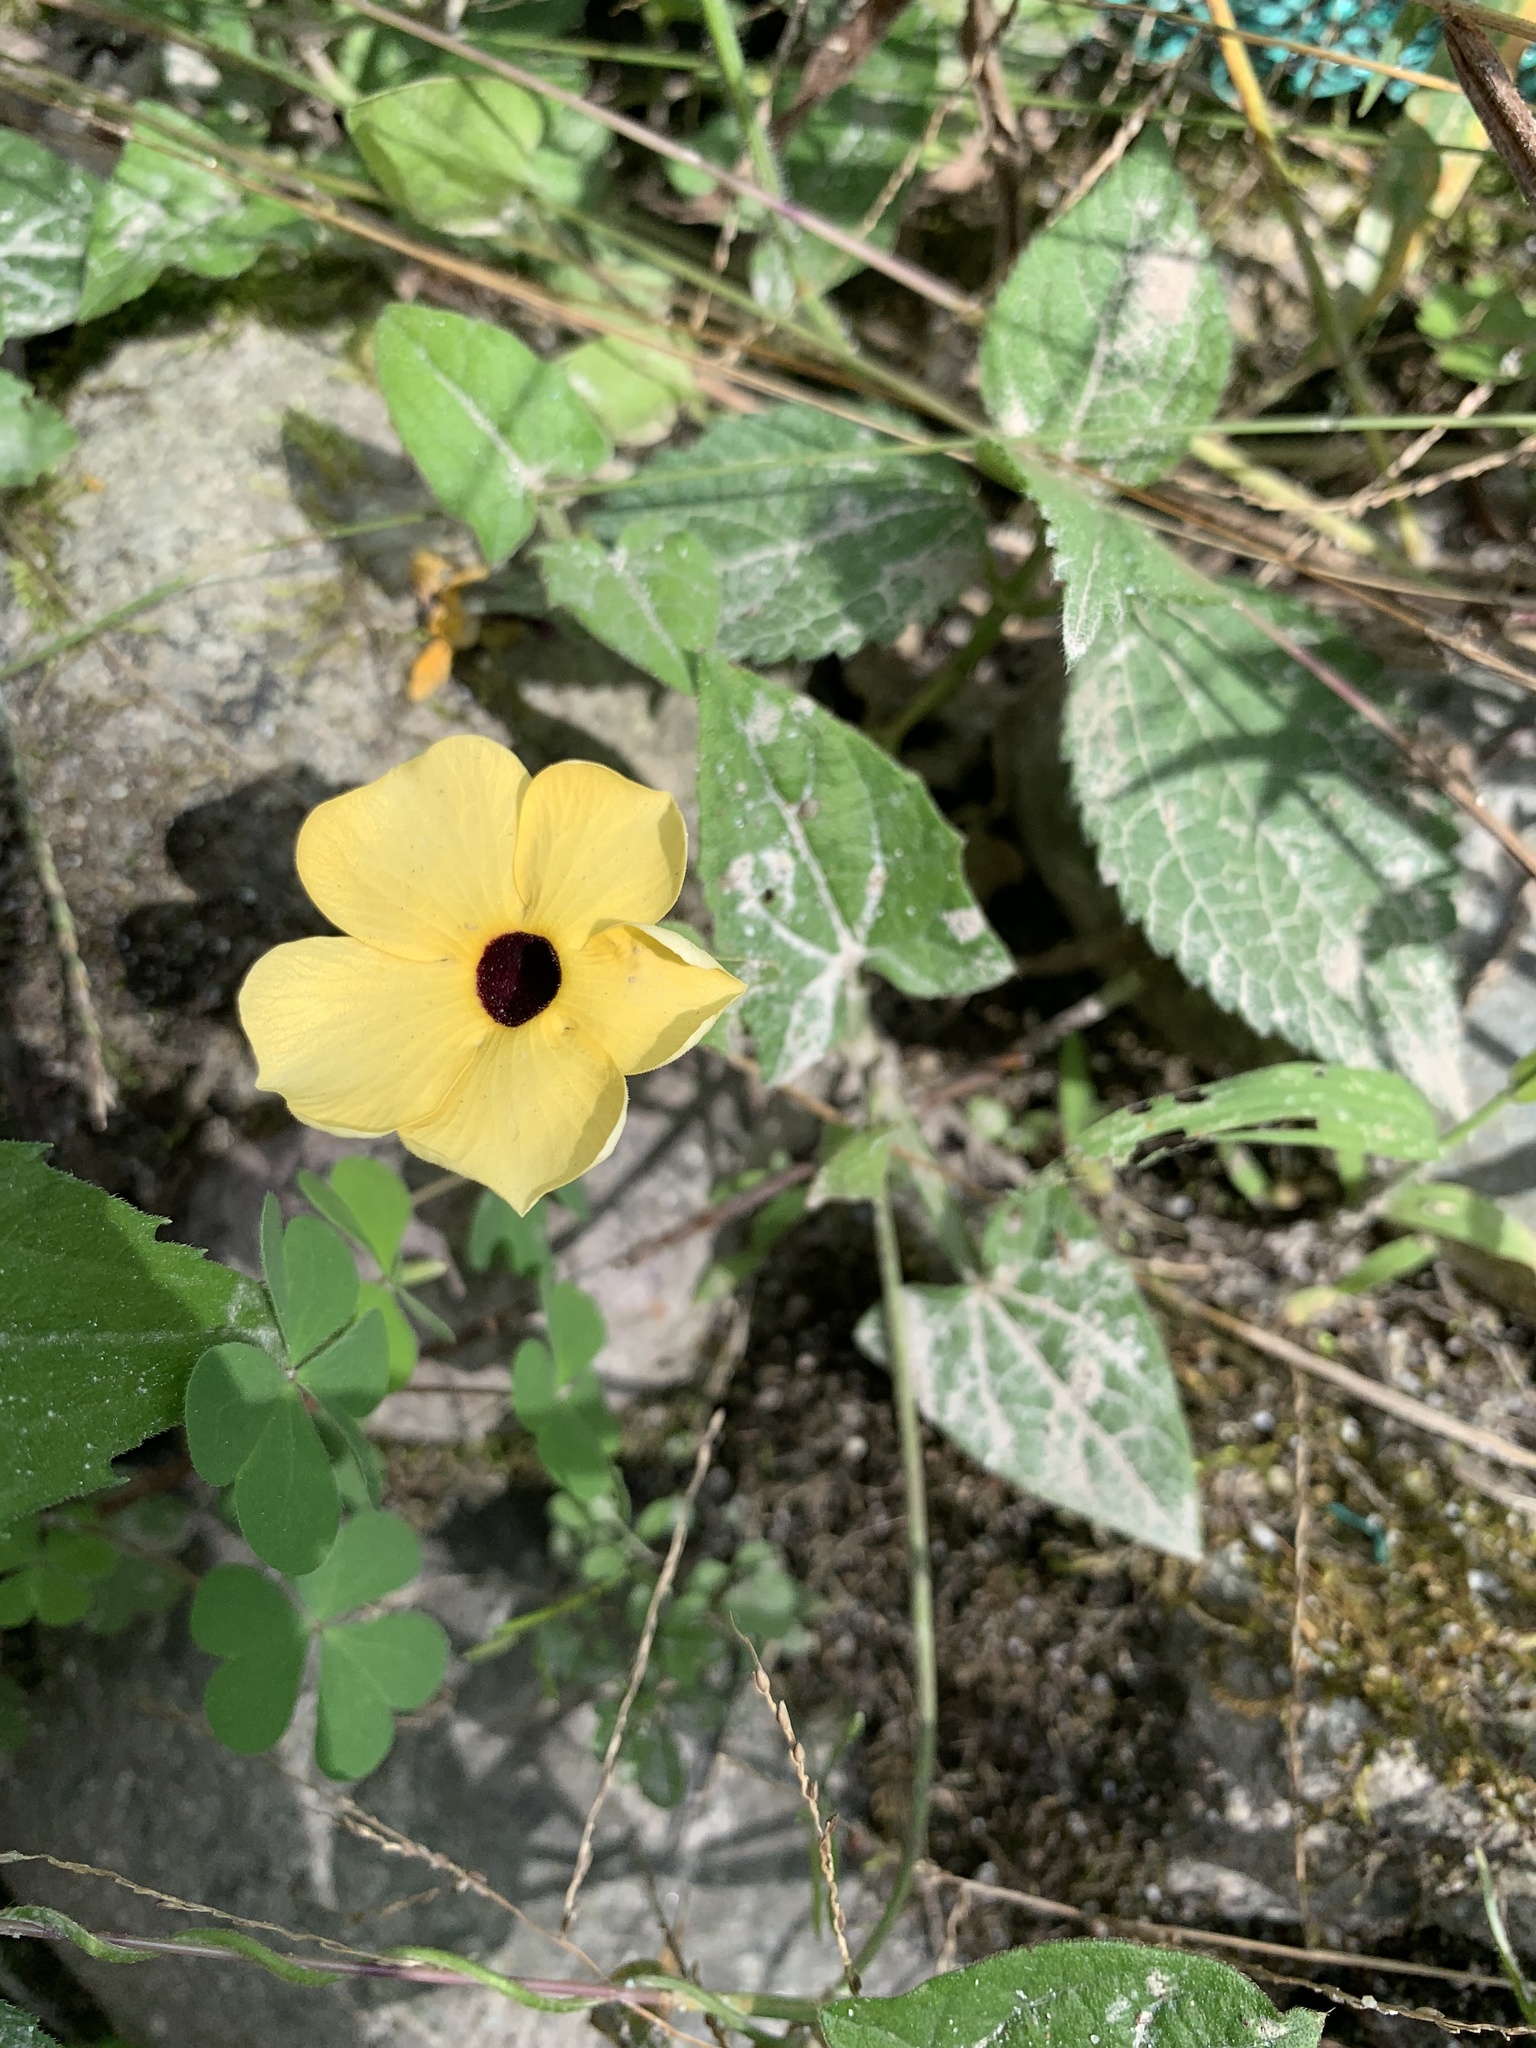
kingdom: Plantae
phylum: Tracheophyta
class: Magnoliopsida
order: Lamiales
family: Acanthaceae
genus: Thunbergia
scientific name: Thunbergia alata
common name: Blackeyed susan vine
